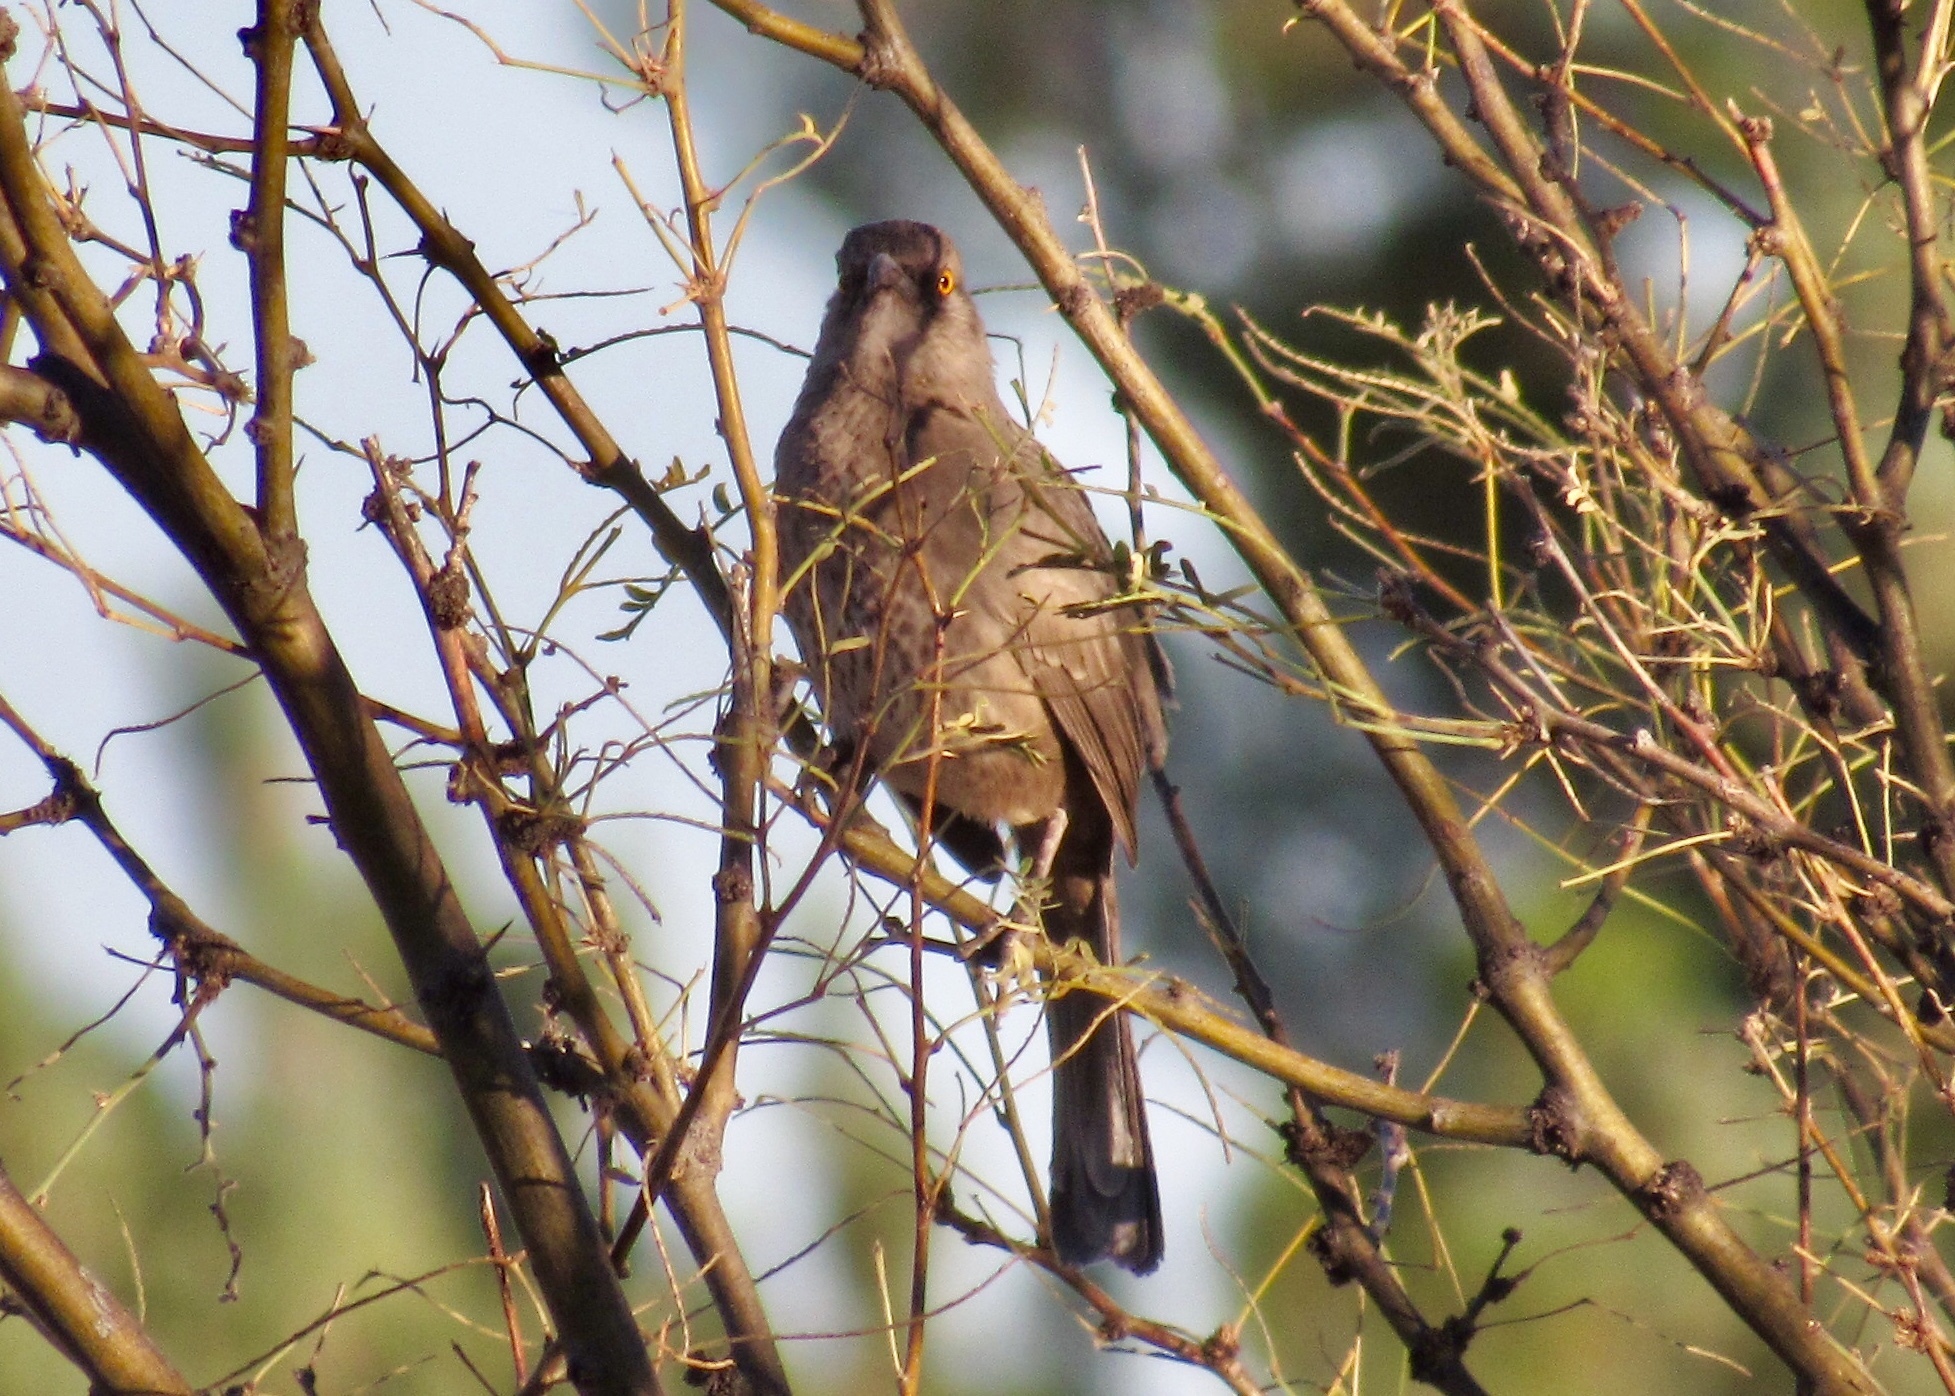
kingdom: Animalia
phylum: Chordata
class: Aves
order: Passeriformes
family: Mimidae
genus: Toxostoma
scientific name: Toxostoma curvirostre
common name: Curve-billed thrasher
